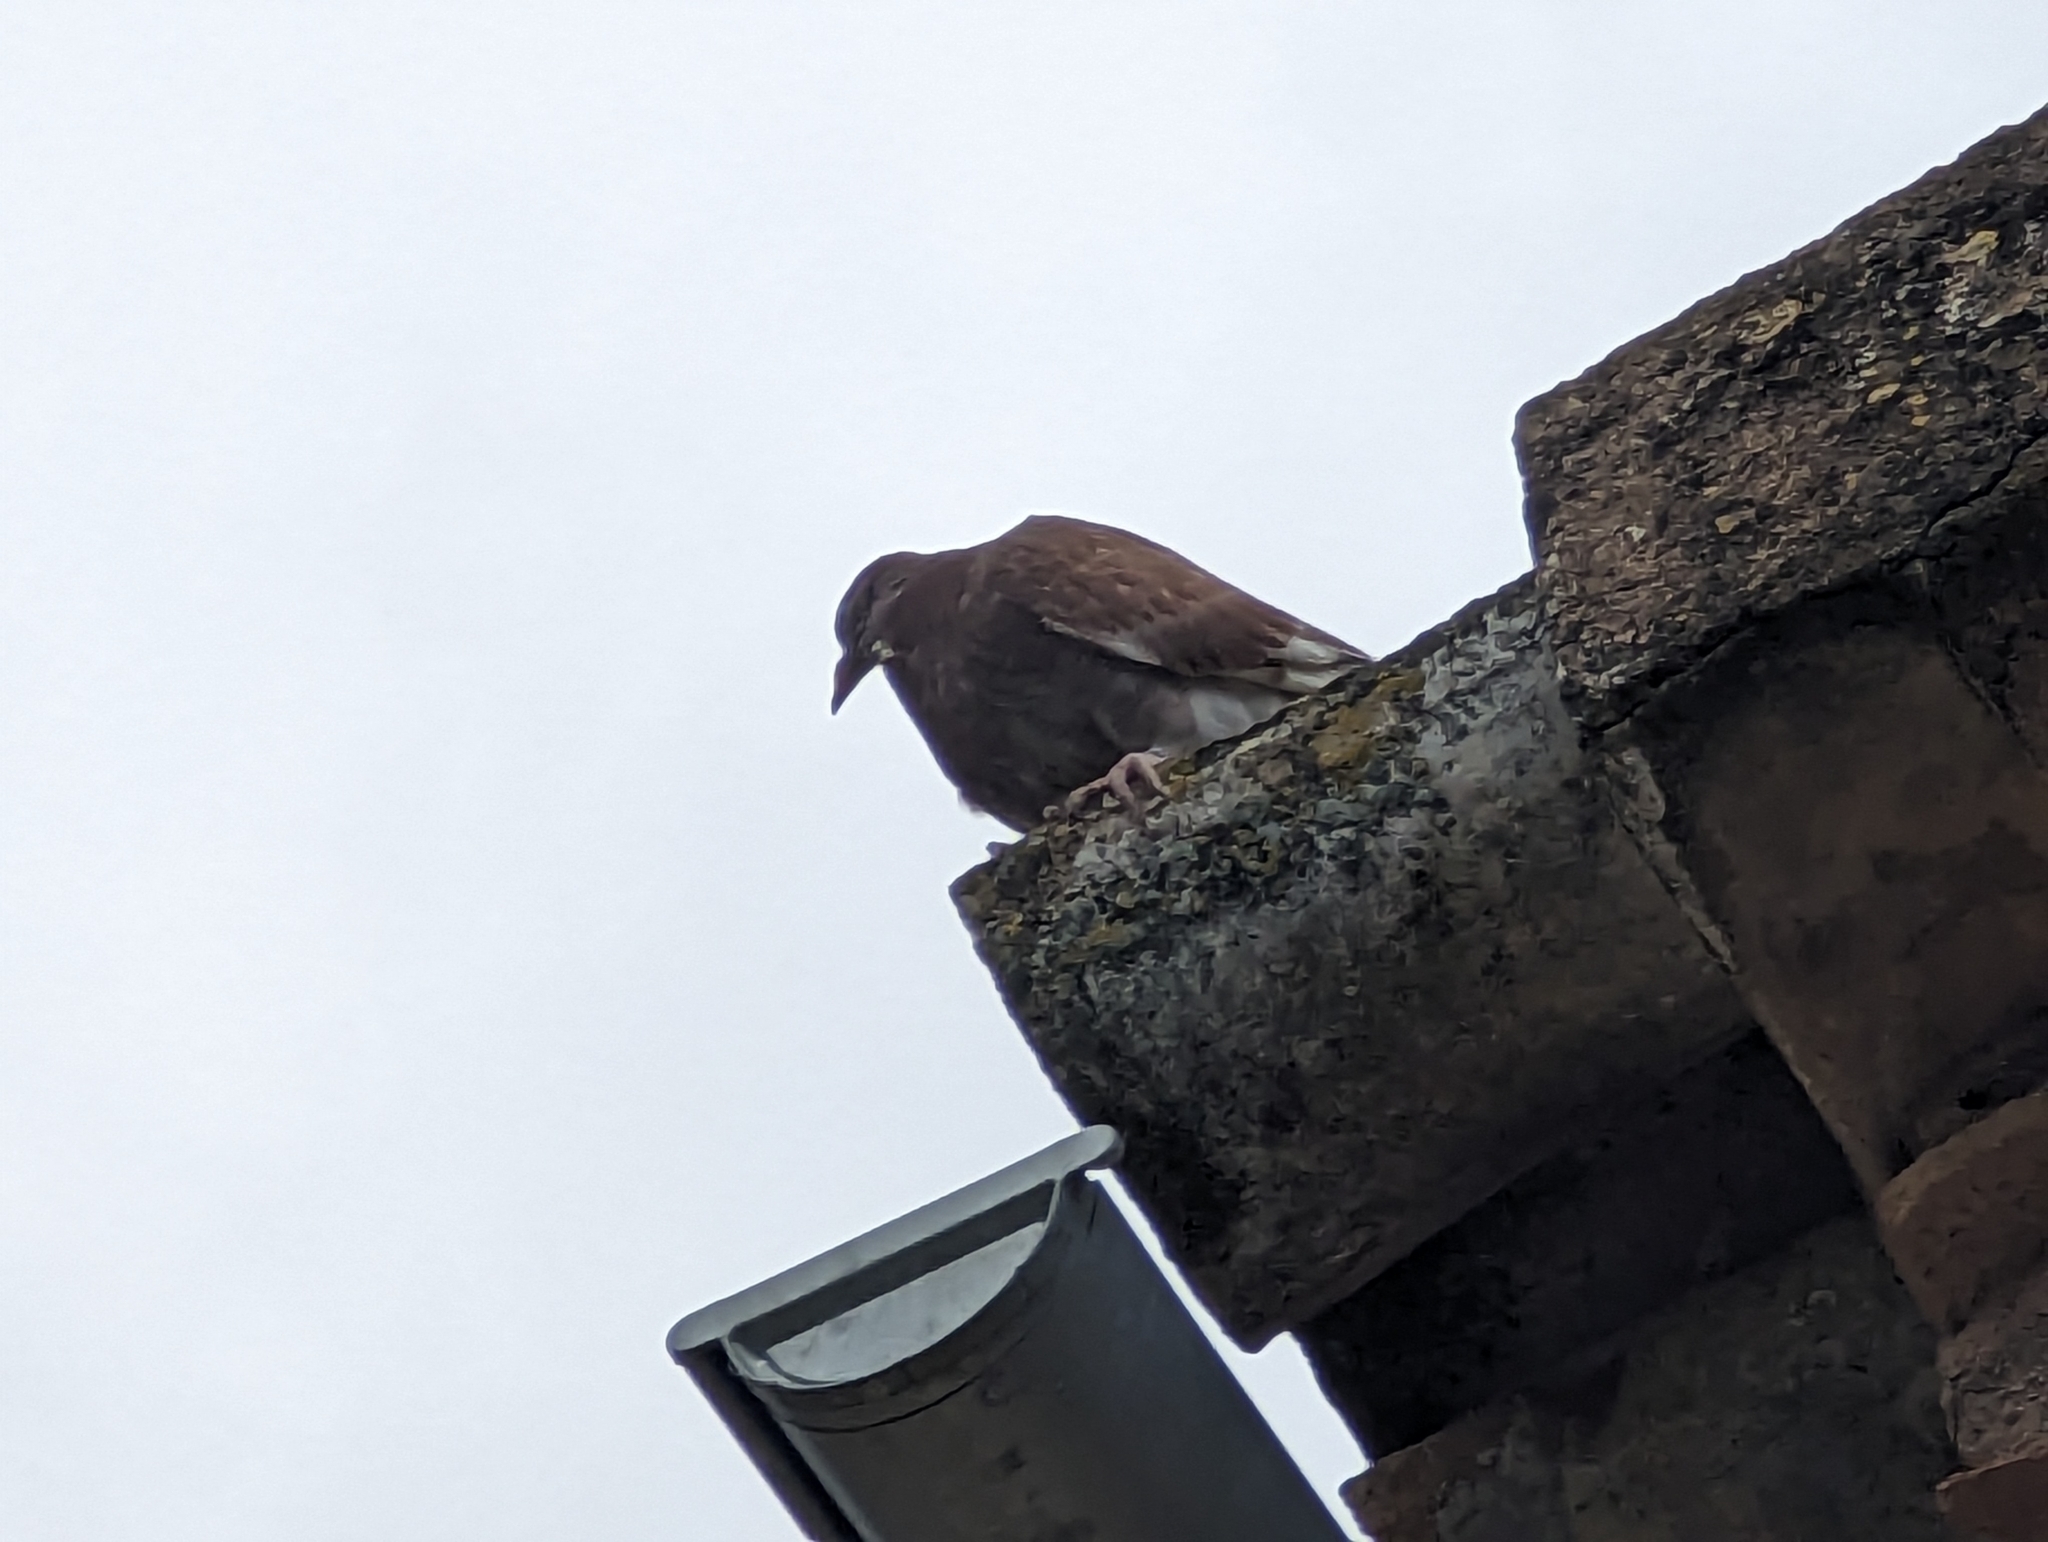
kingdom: Animalia
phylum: Chordata
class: Aves
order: Columbiformes
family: Columbidae
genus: Columba
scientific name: Columba livia
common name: Rock pigeon
